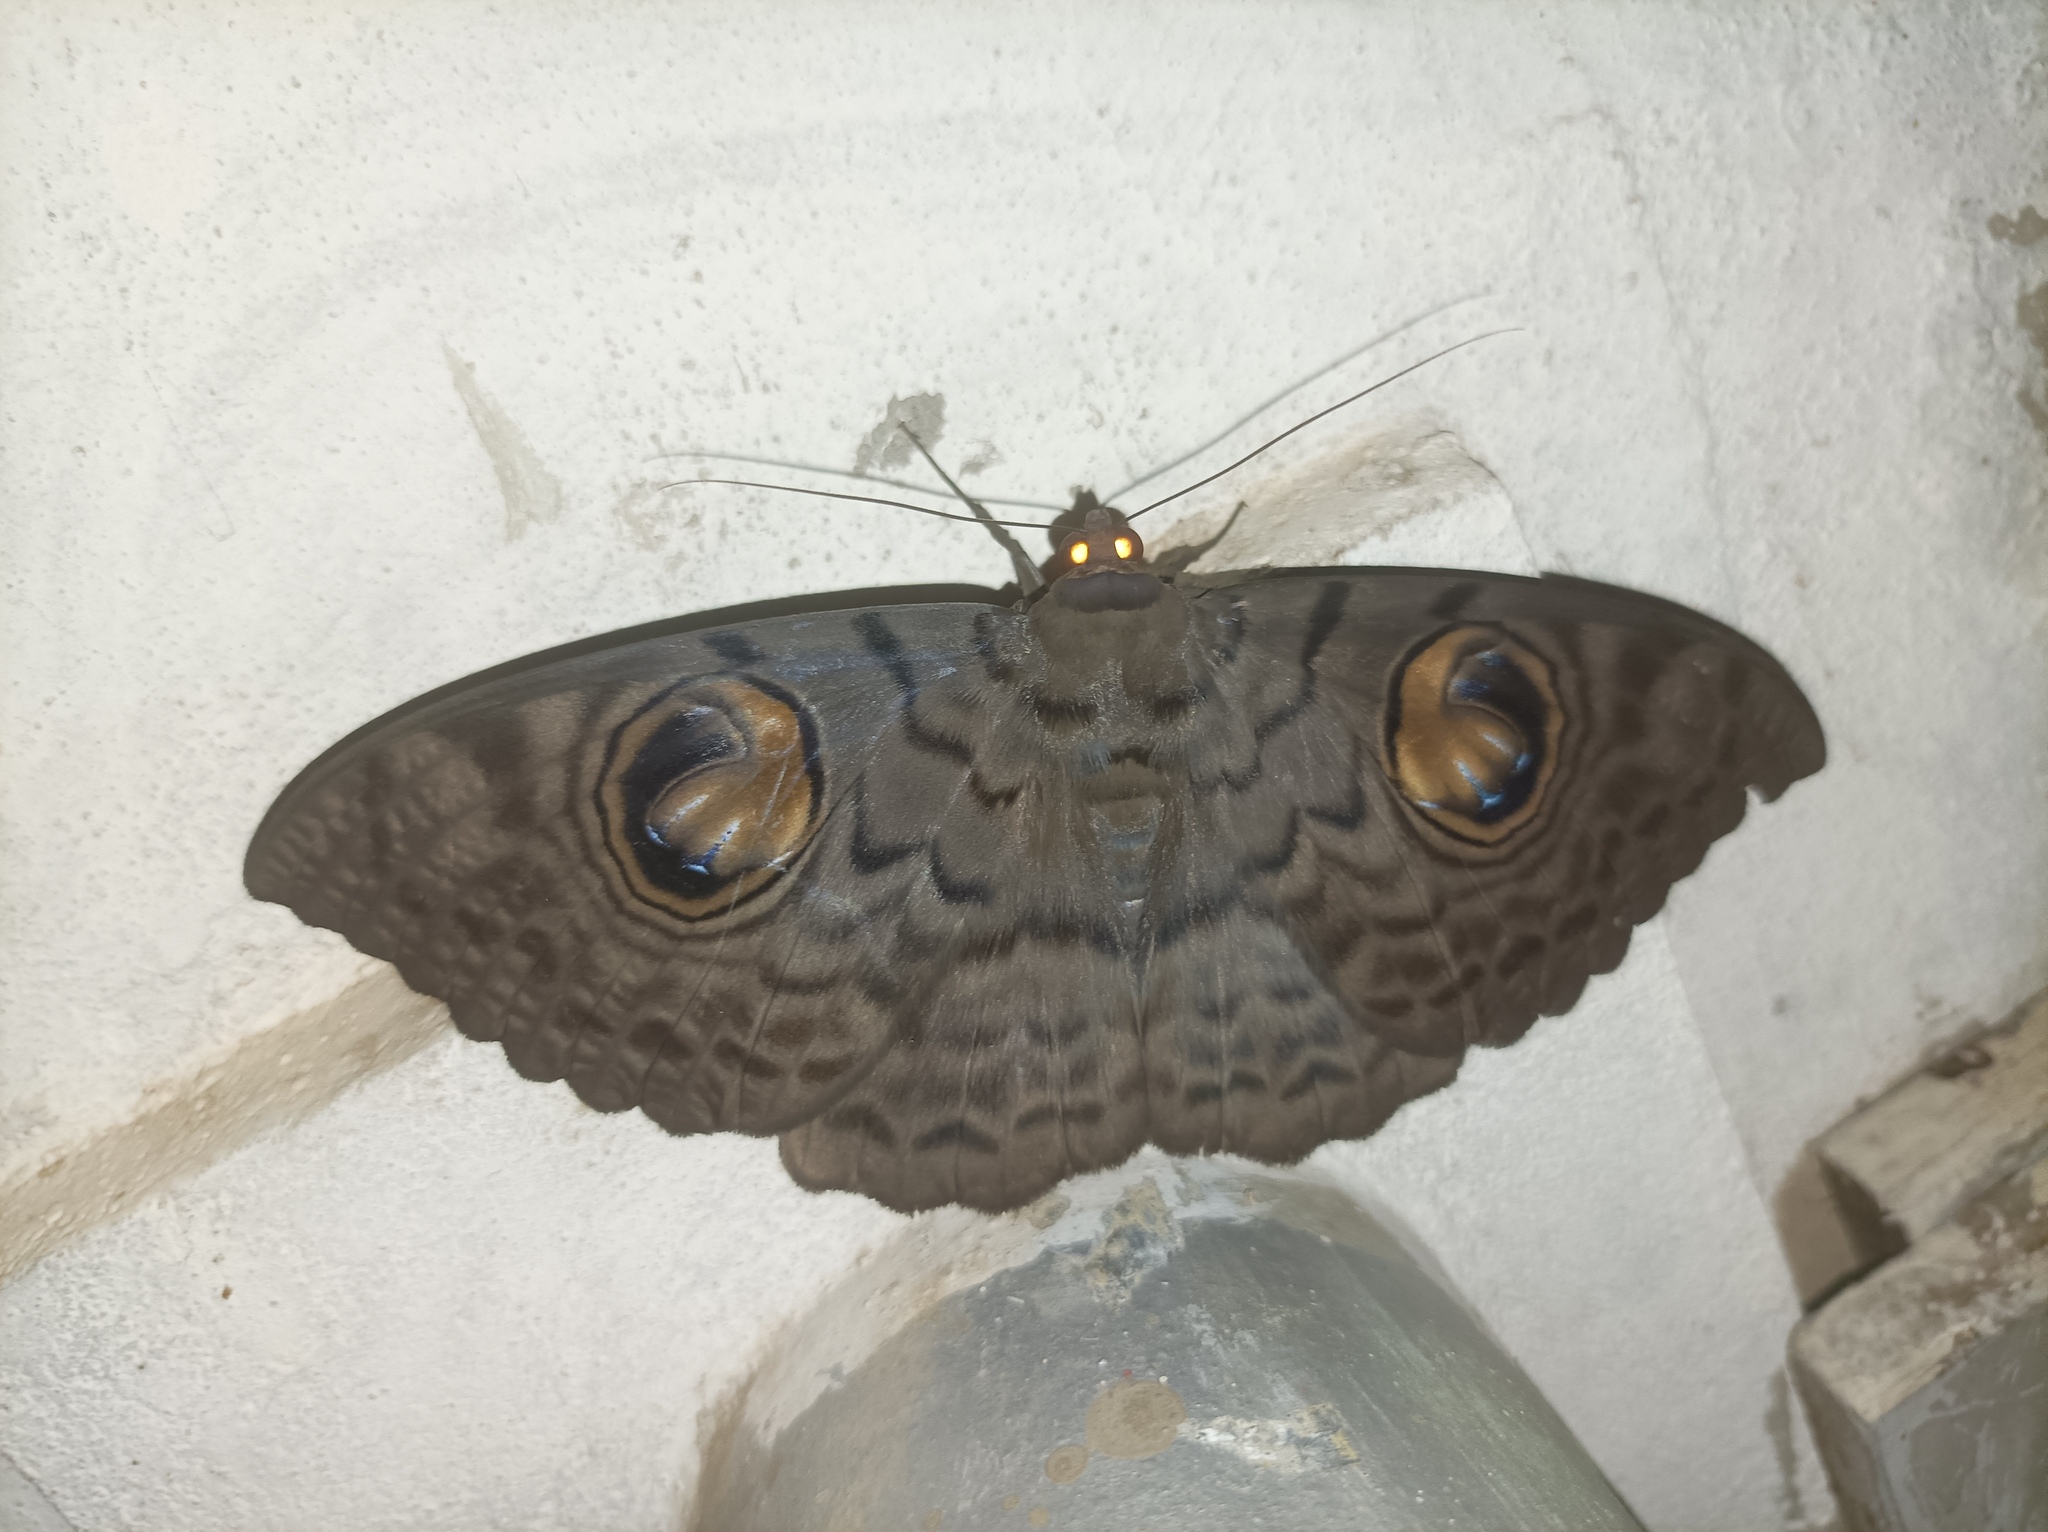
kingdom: Animalia
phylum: Arthropoda
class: Insecta
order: Lepidoptera
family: Erebidae
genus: Erebus
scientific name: Erebus macrops
